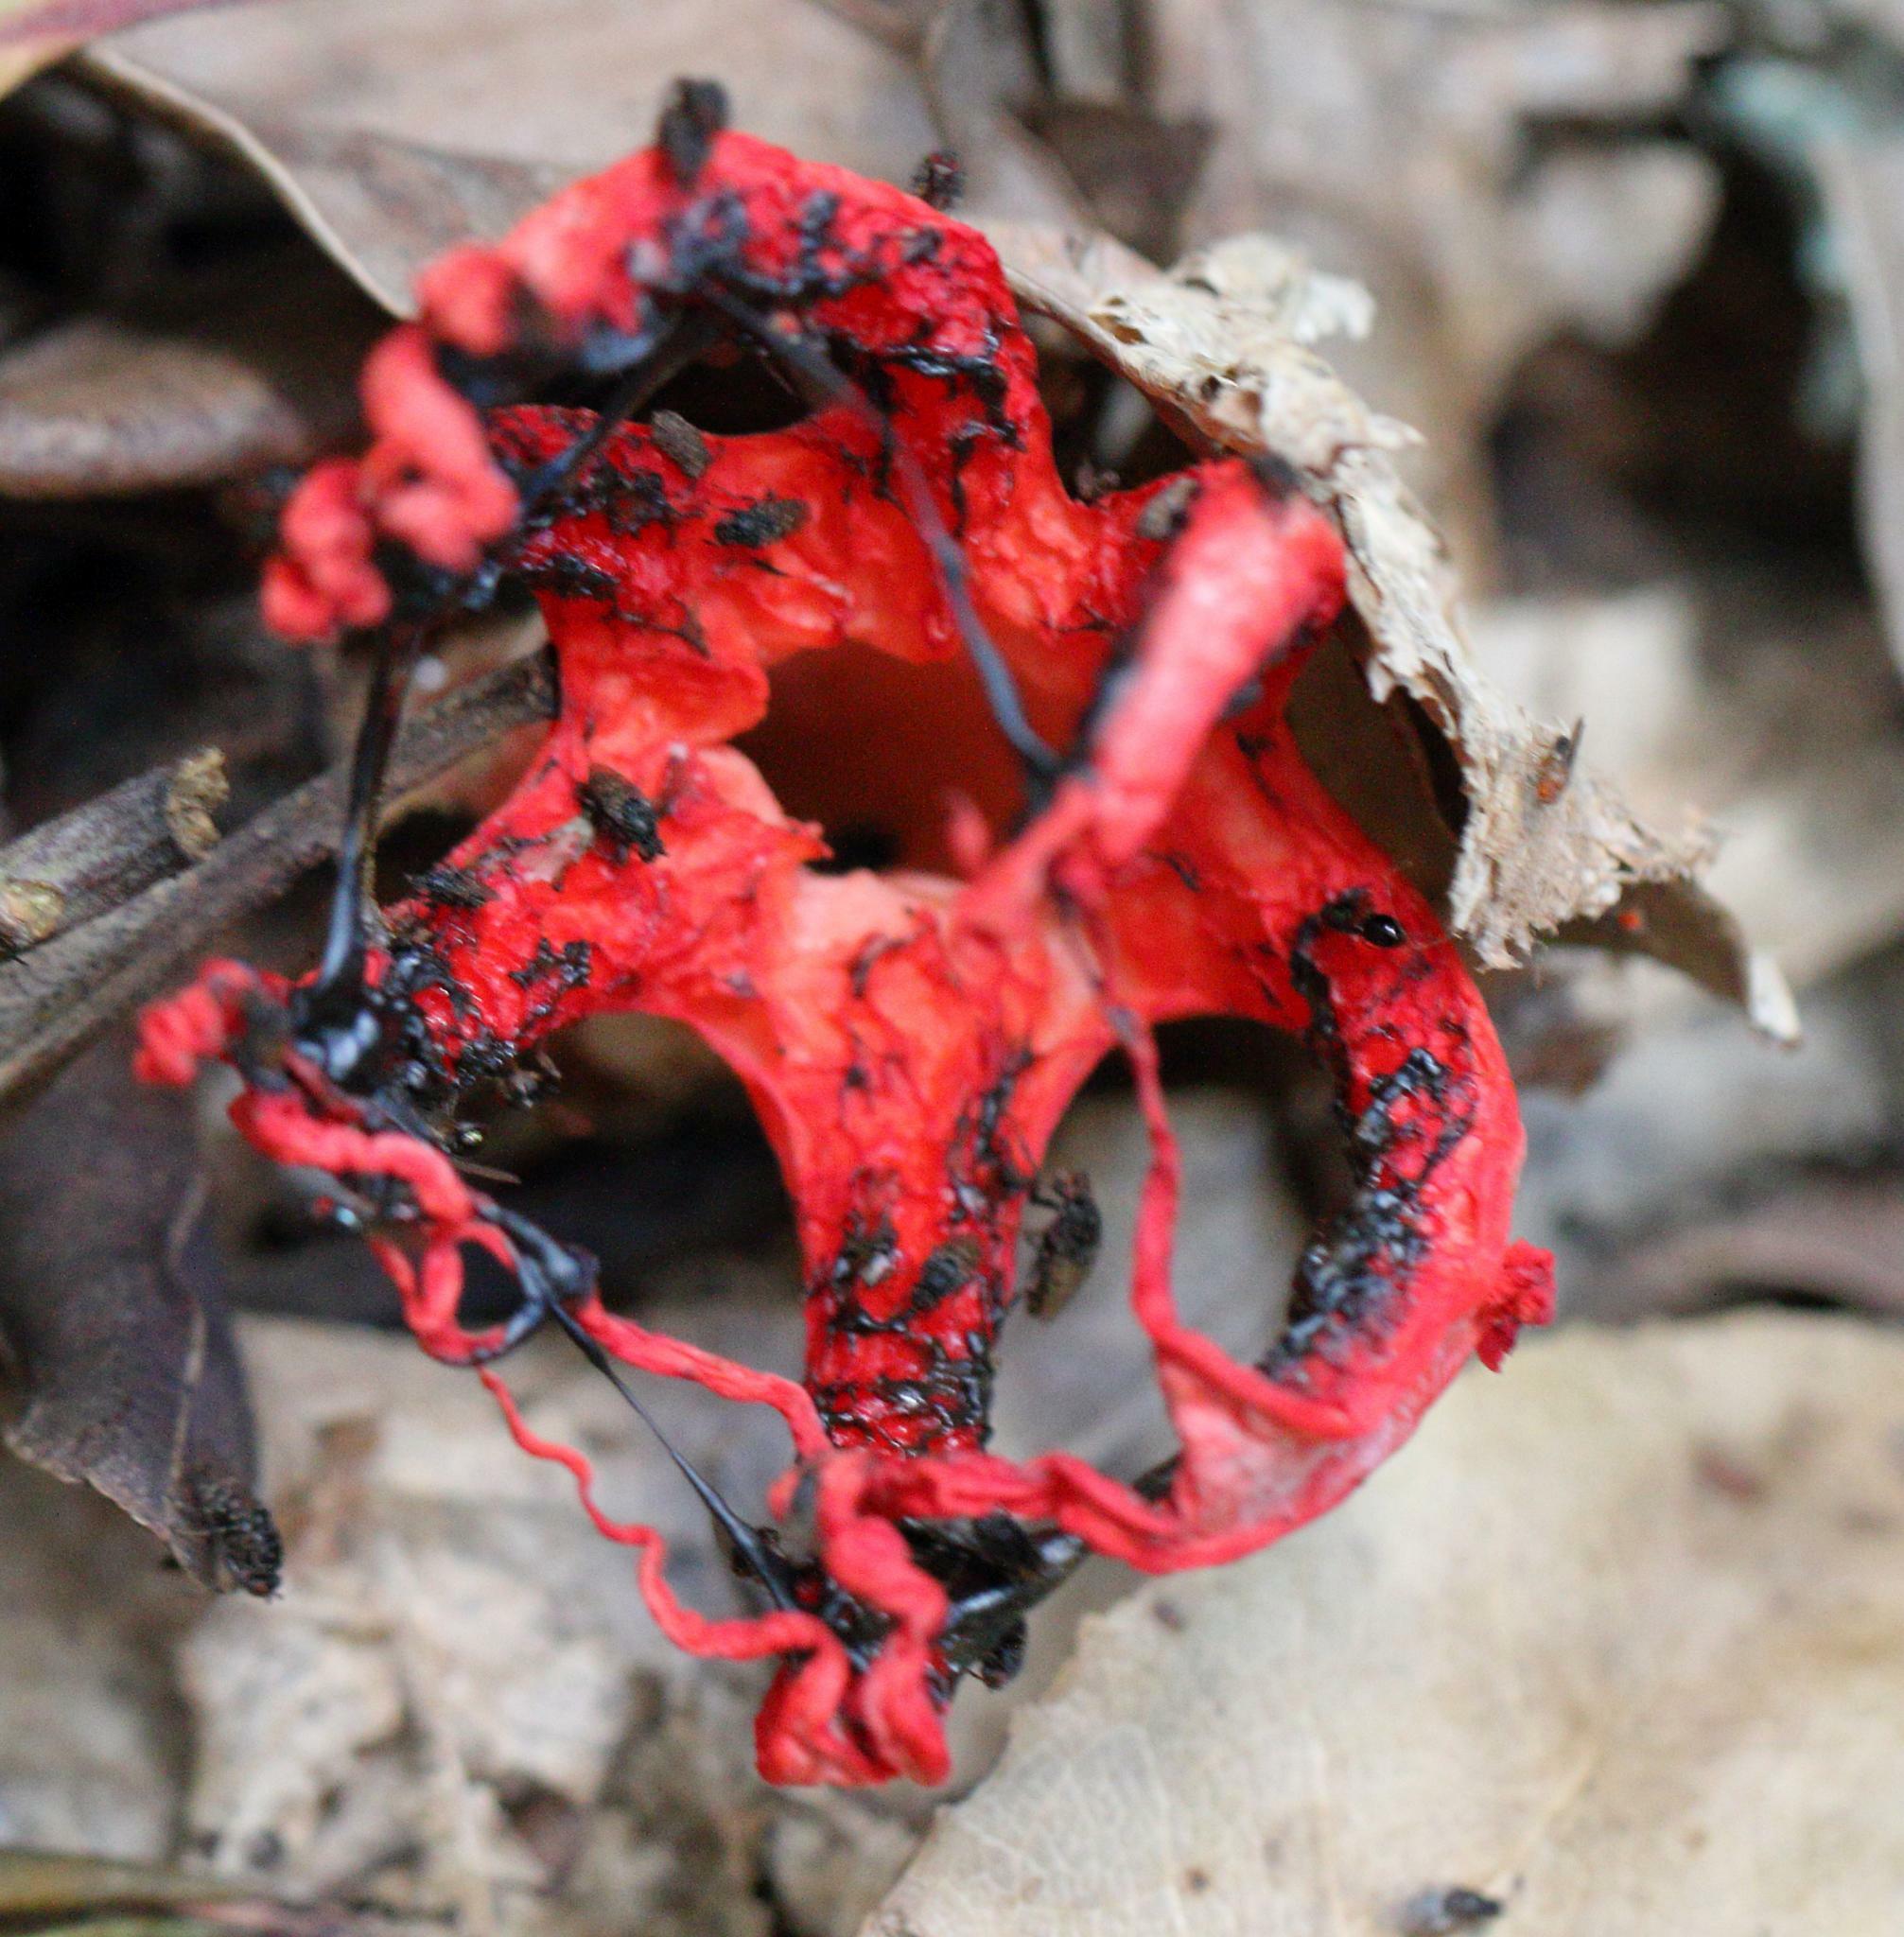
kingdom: Fungi
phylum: Basidiomycota
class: Agaricomycetes
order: Phallales
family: Phallaceae
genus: Clathrus
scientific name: Clathrus archeri
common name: Devil's fingers
